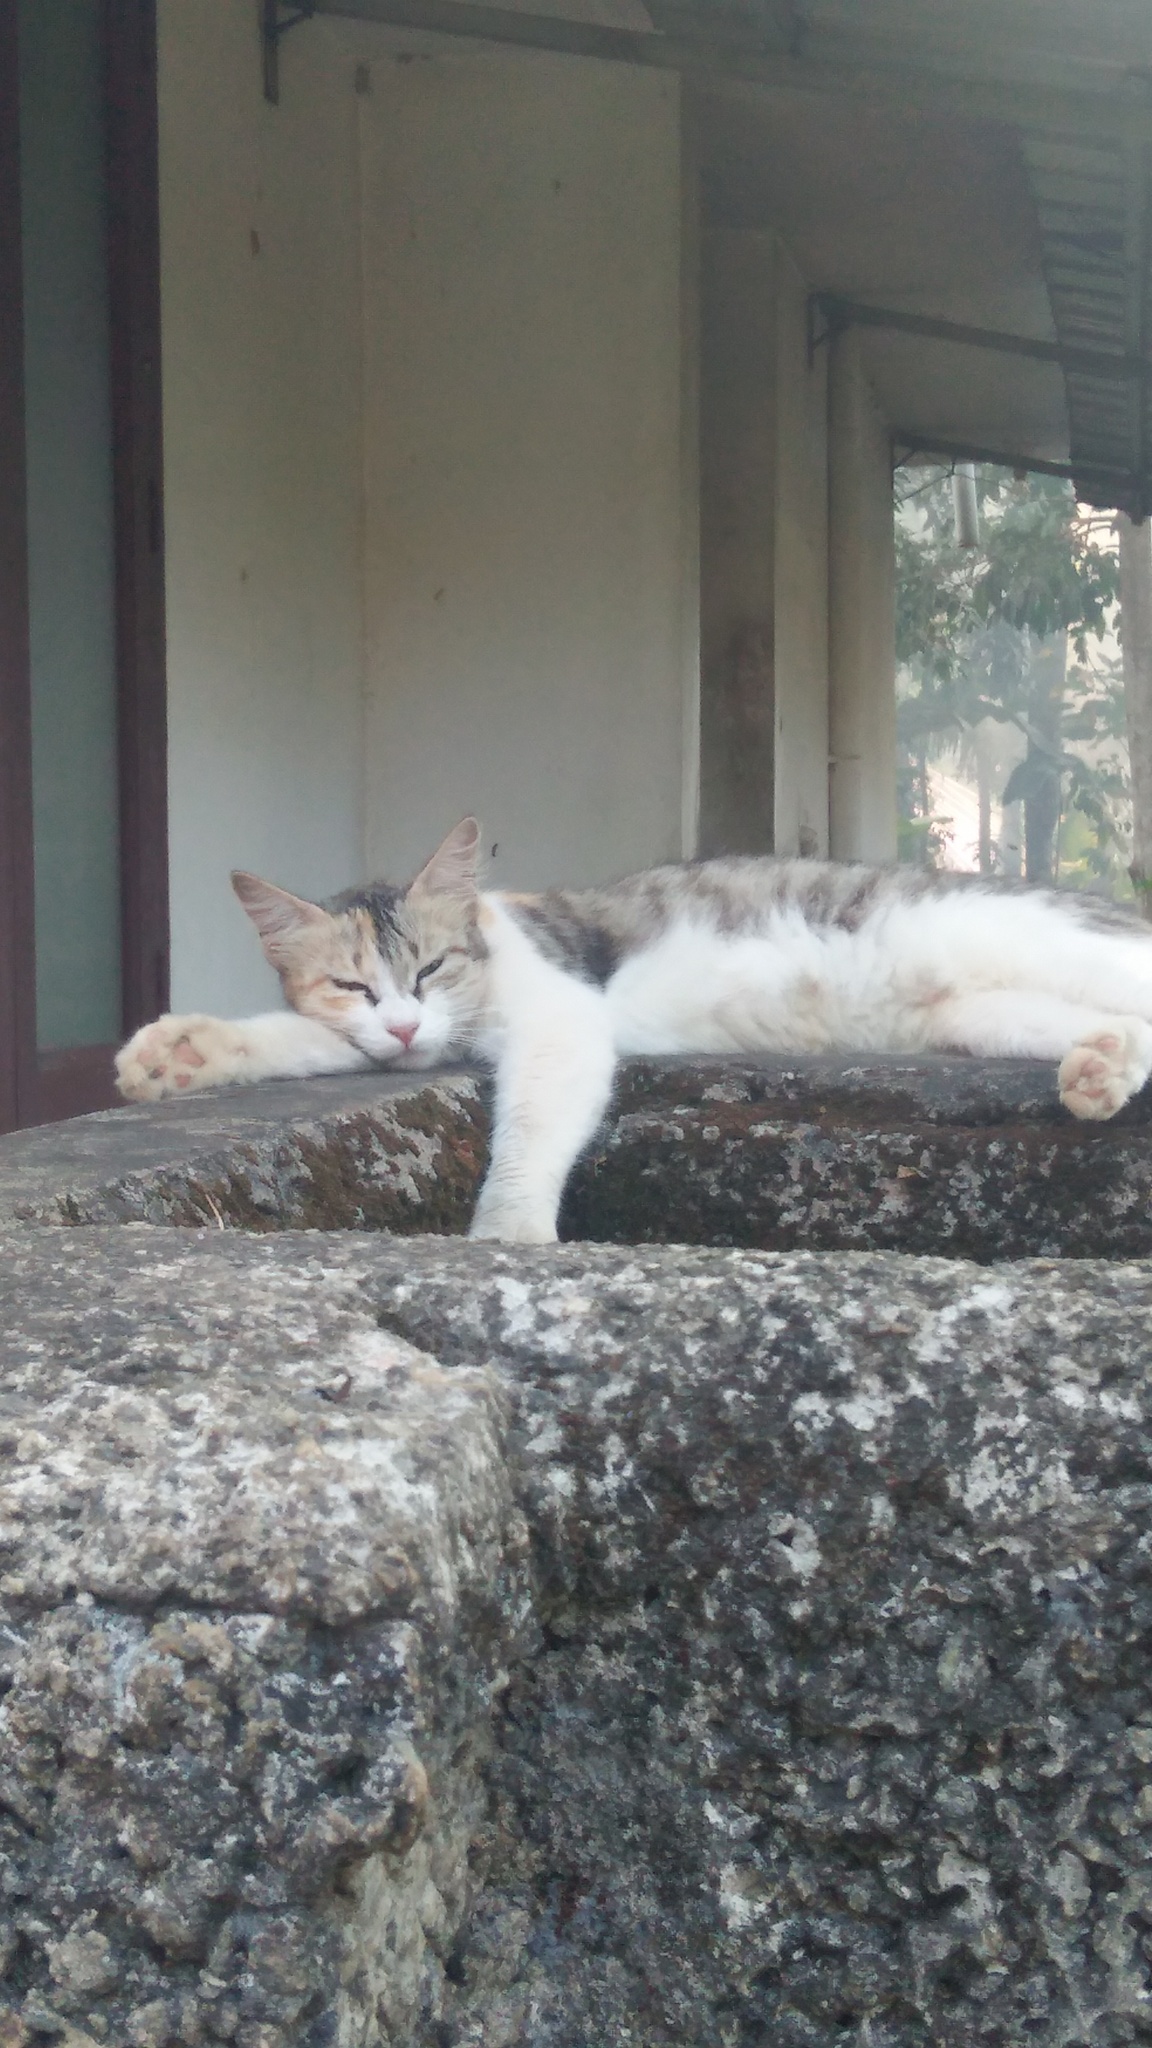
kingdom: Animalia
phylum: Chordata
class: Mammalia
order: Carnivora
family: Felidae
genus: Felis
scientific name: Felis catus
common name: Domestic cat
